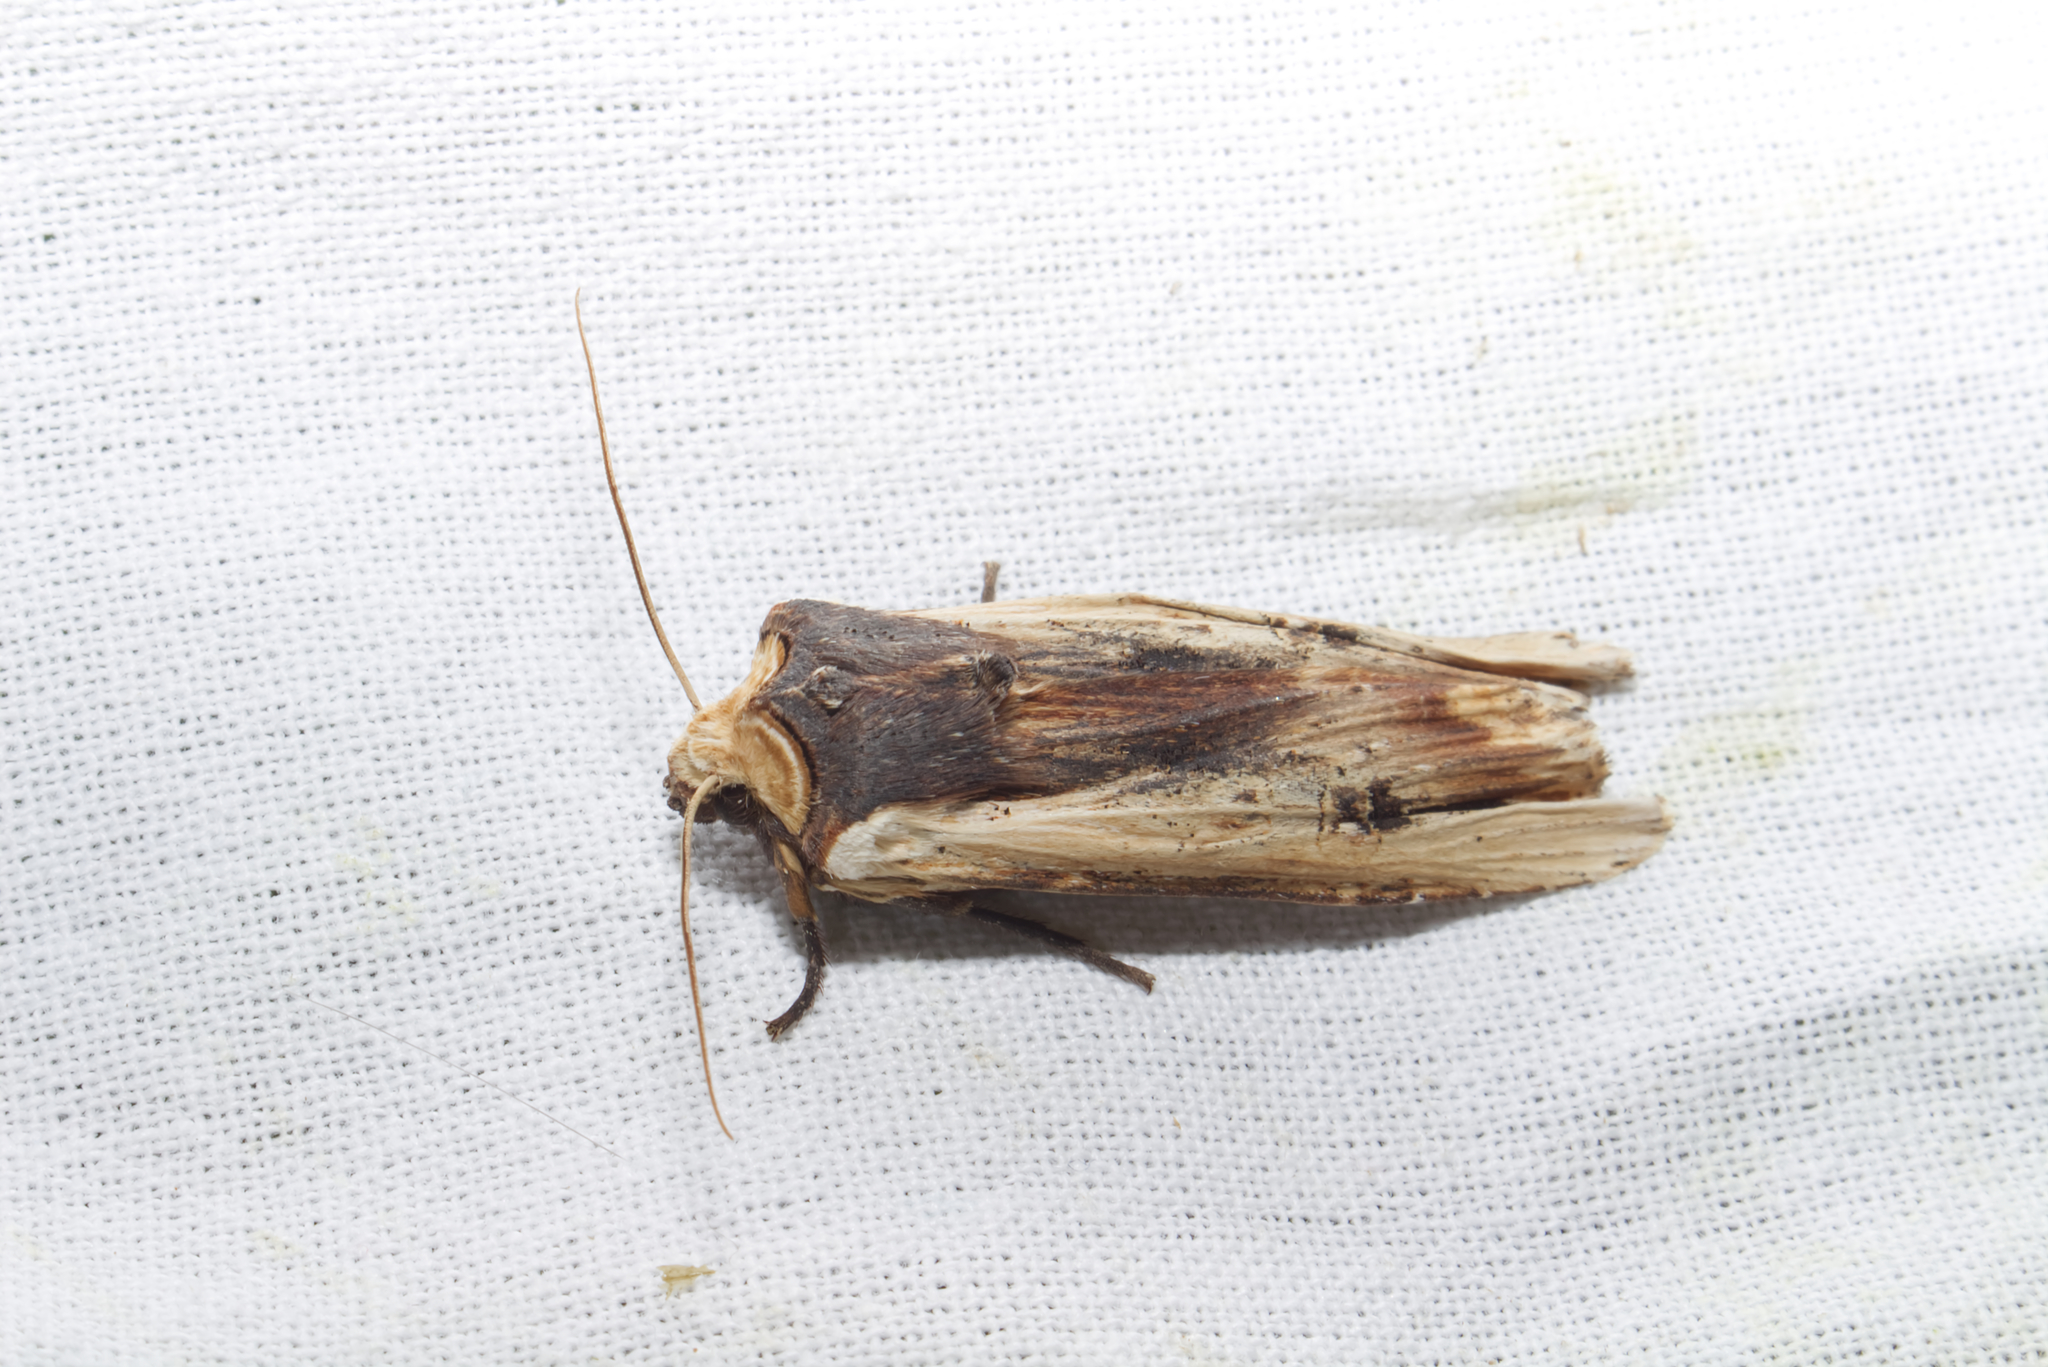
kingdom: Animalia
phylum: Arthropoda
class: Insecta
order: Lepidoptera
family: Noctuidae
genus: Xylena
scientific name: Xylena vetusta
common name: Red sword-grass
